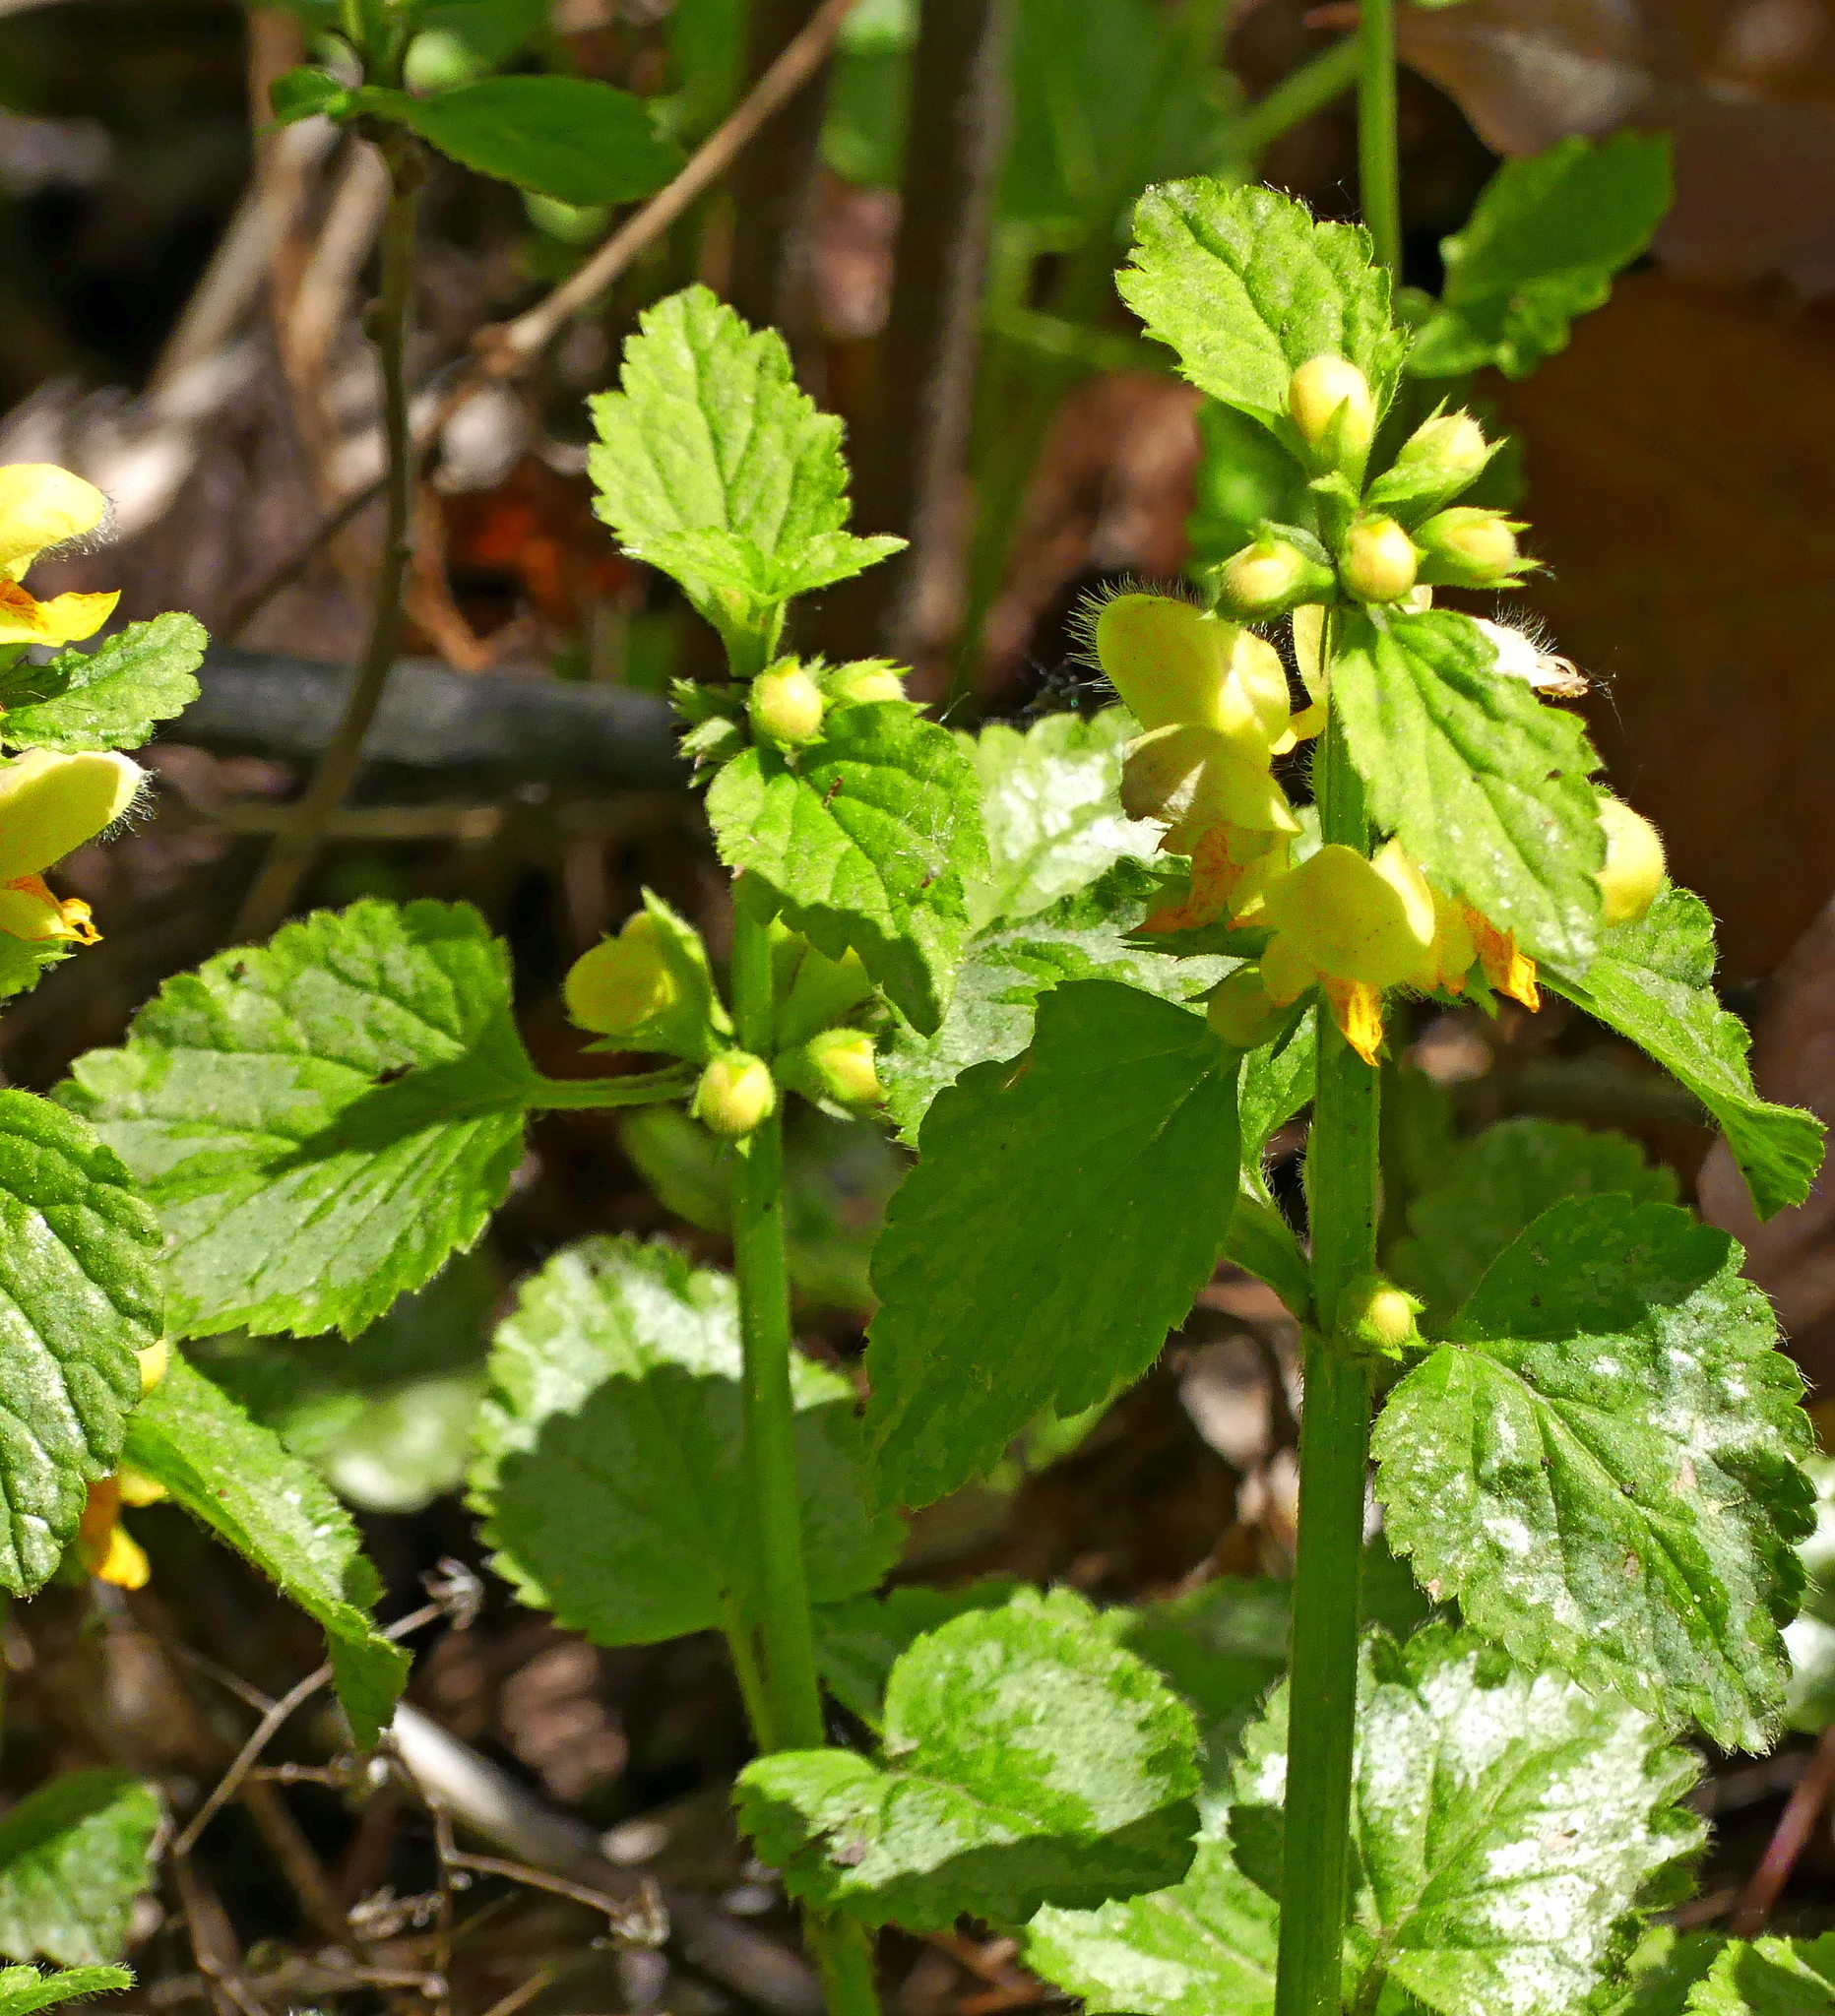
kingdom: Plantae
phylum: Tracheophyta
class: Magnoliopsida
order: Lamiales
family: Lamiaceae
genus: Lamium
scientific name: Lamium galeobdolon
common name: Yellow archangel
